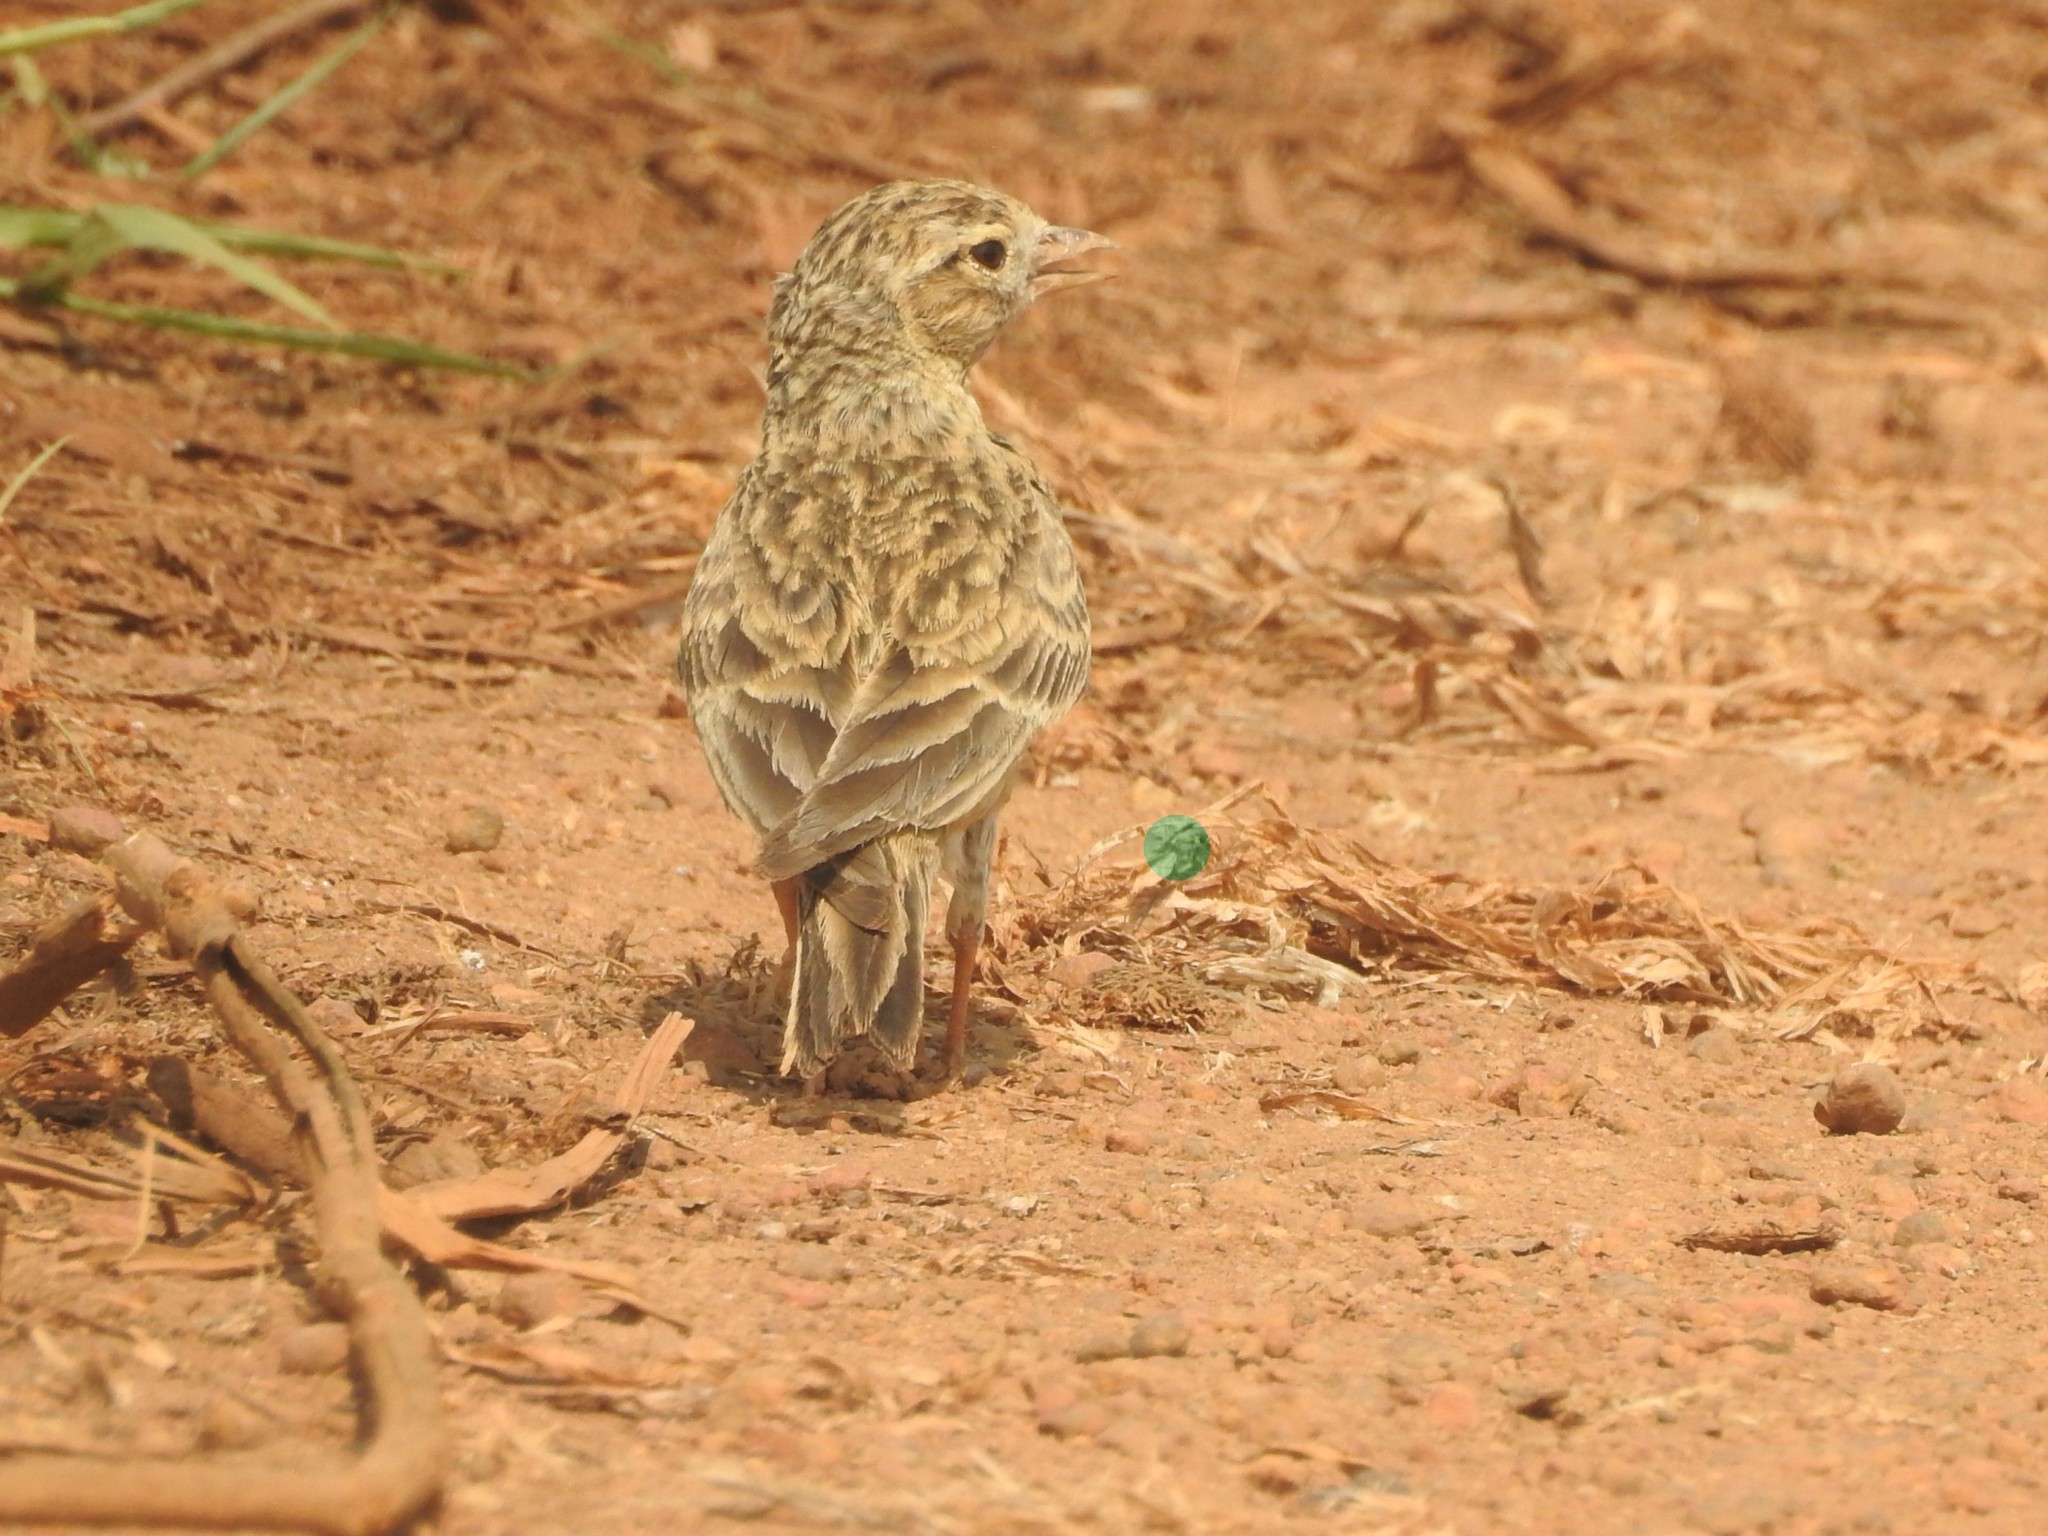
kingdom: Animalia
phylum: Chordata
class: Aves
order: Passeriformes
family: Alaudidae
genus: Calandrella
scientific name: Calandrella brachydactyla
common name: Greater short-toed lark
